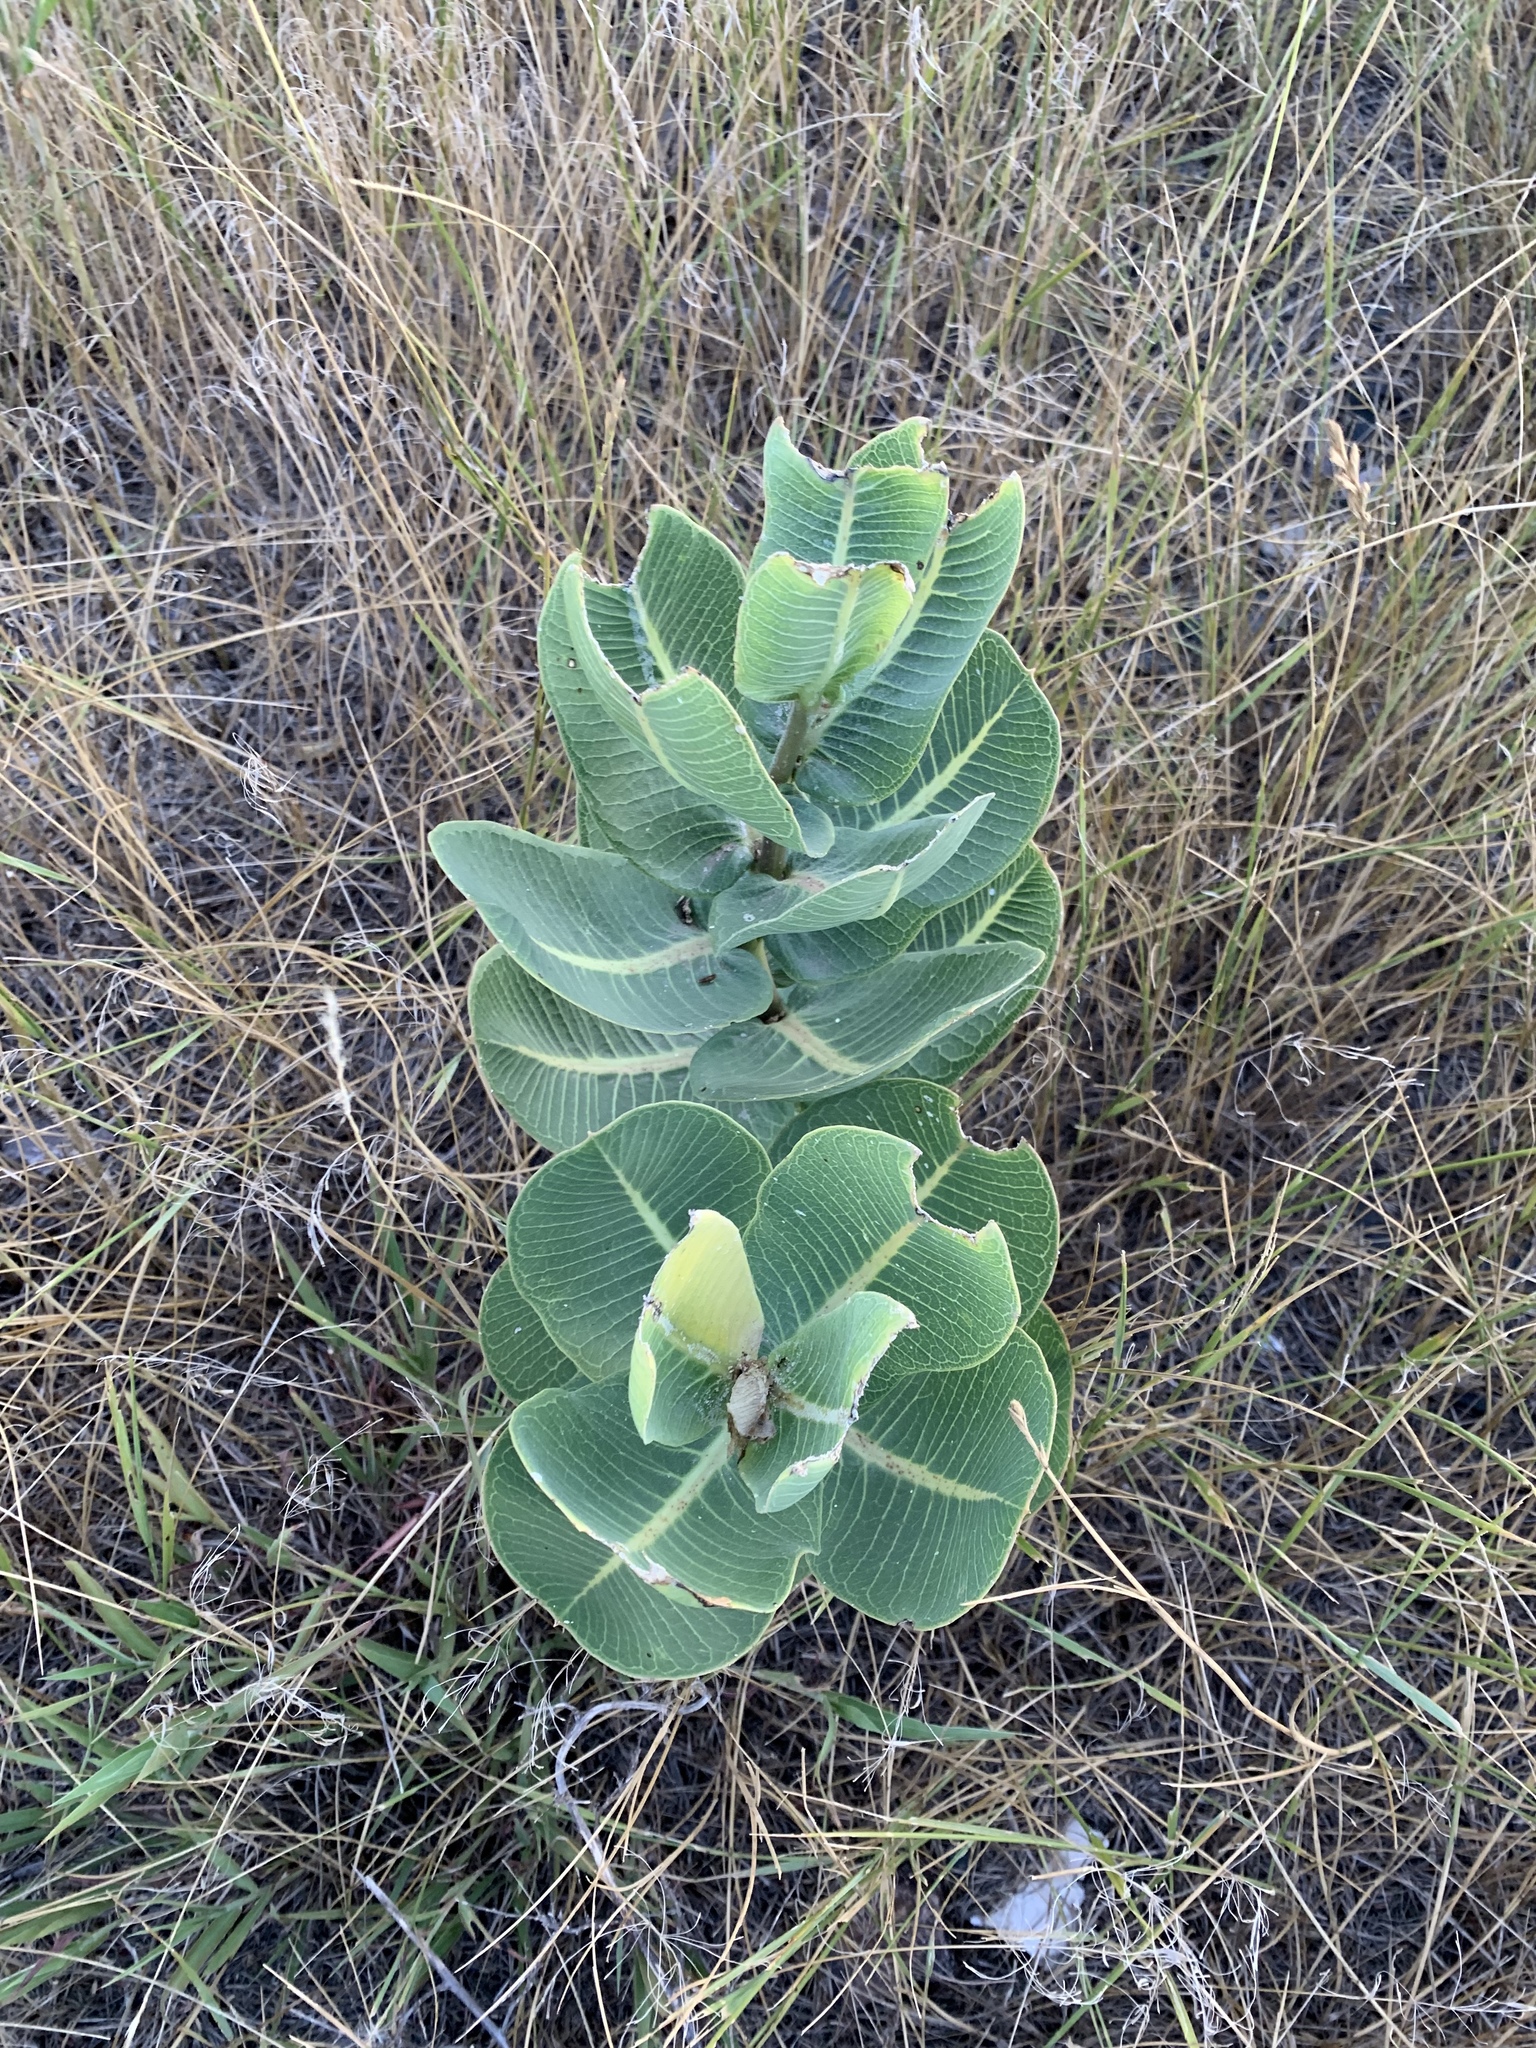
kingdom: Plantae
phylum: Tracheophyta
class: Magnoliopsida
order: Gentianales
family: Apocynaceae
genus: Asclepias
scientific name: Asclepias latifolia
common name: Broadleaf milkweed
